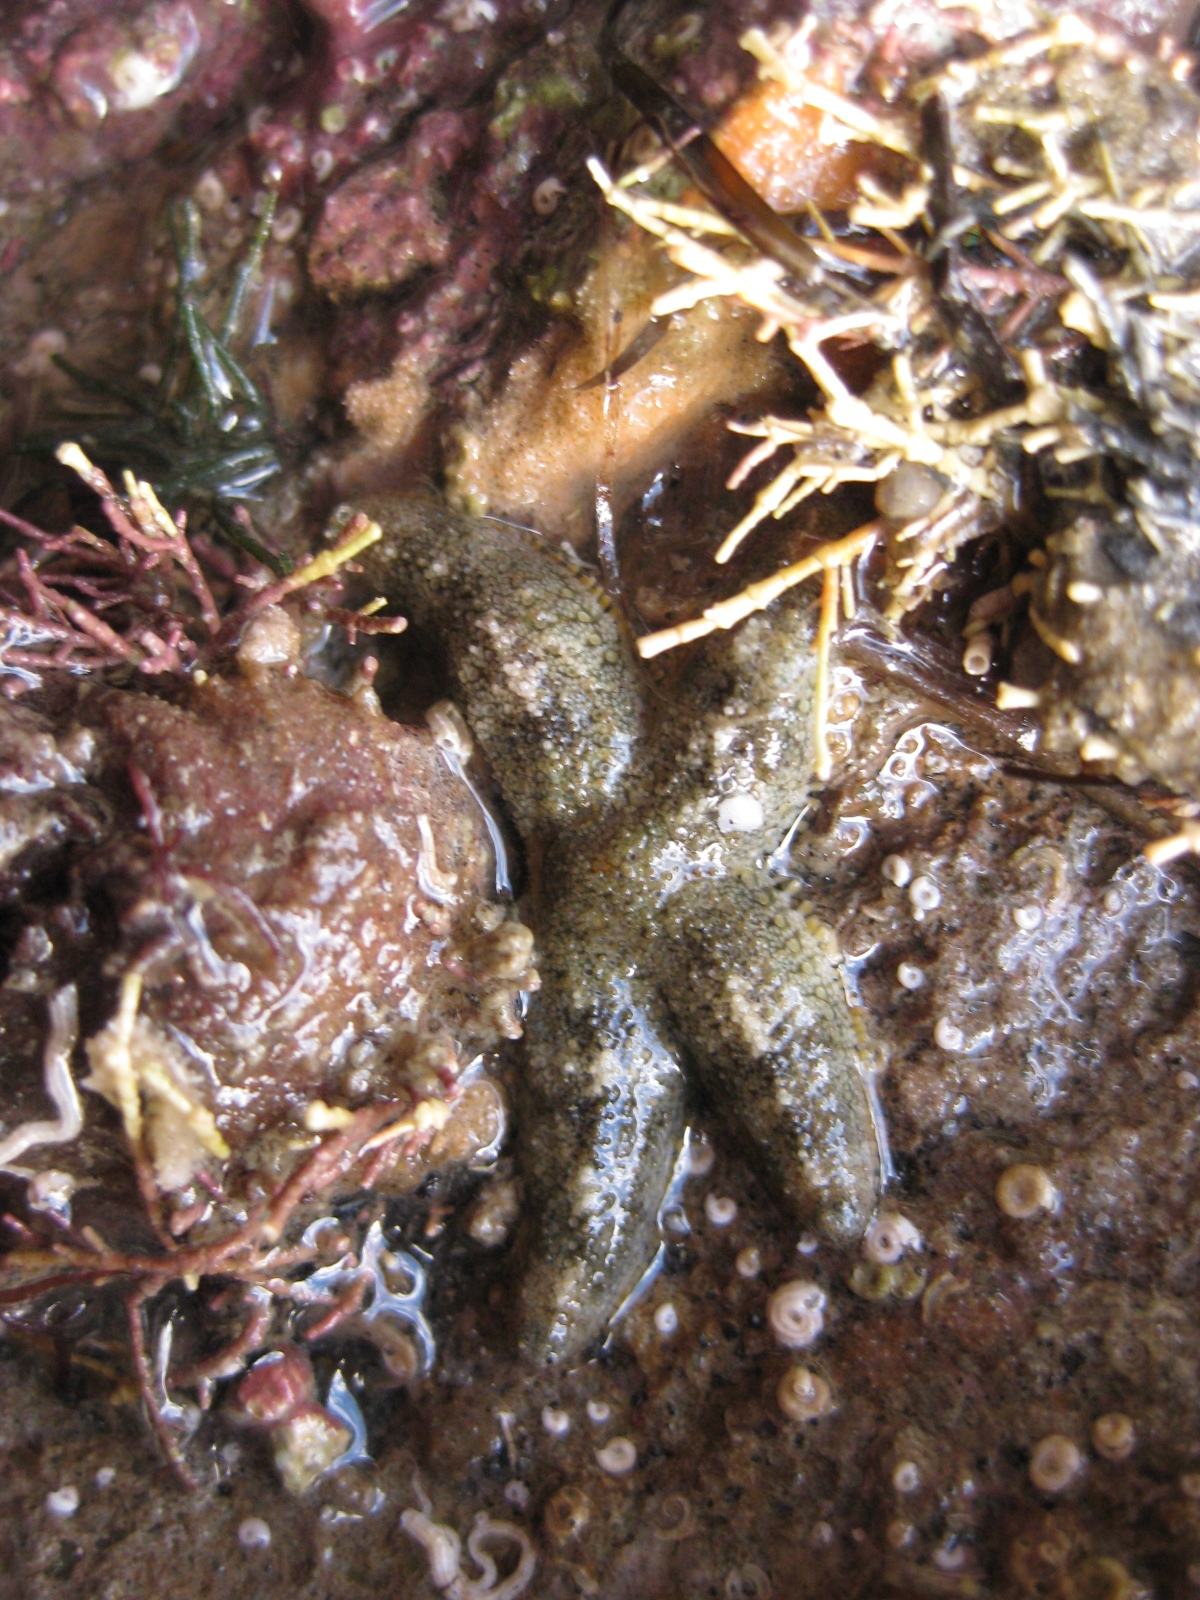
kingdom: Animalia
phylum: Echinodermata
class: Asteroidea
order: Forcipulatida
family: Stichasteridae
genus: Allostichaster
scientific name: Allostichaster polyplax
